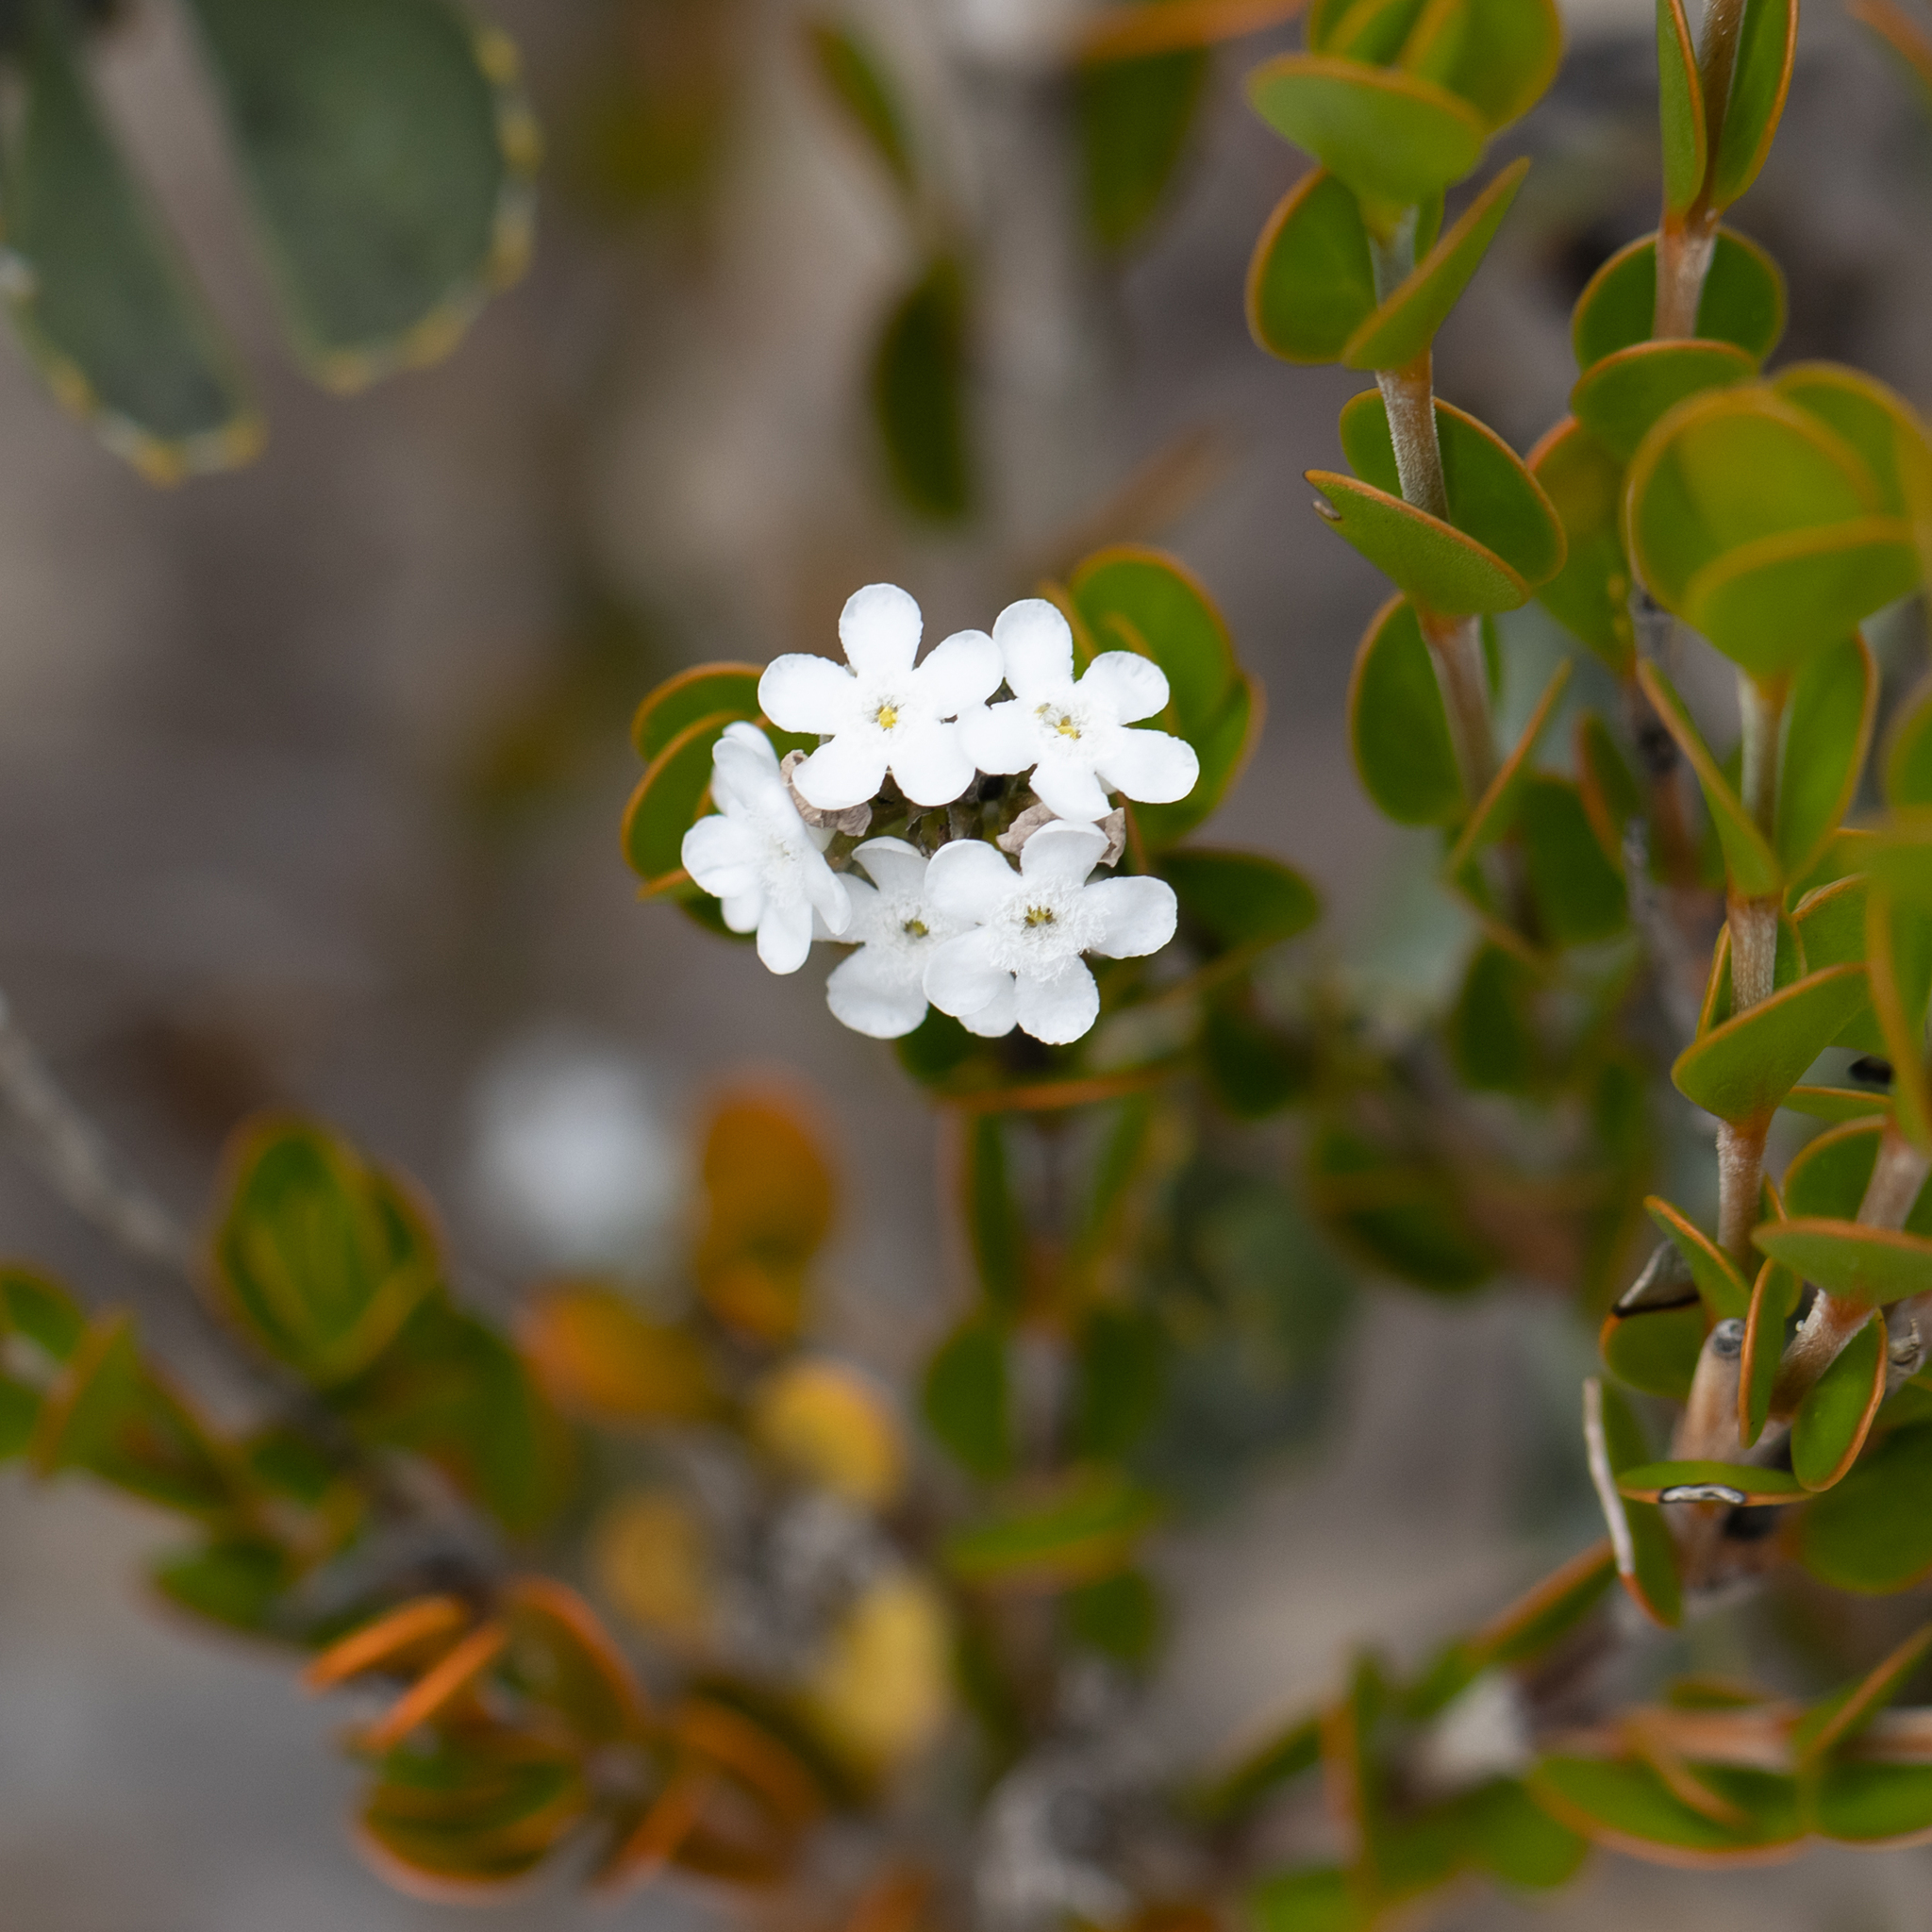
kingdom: Plantae
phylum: Tracheophyta
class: Magnoliopsida
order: Gentianales
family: Loganiaceae
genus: Logania
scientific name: Logania buxifolia
